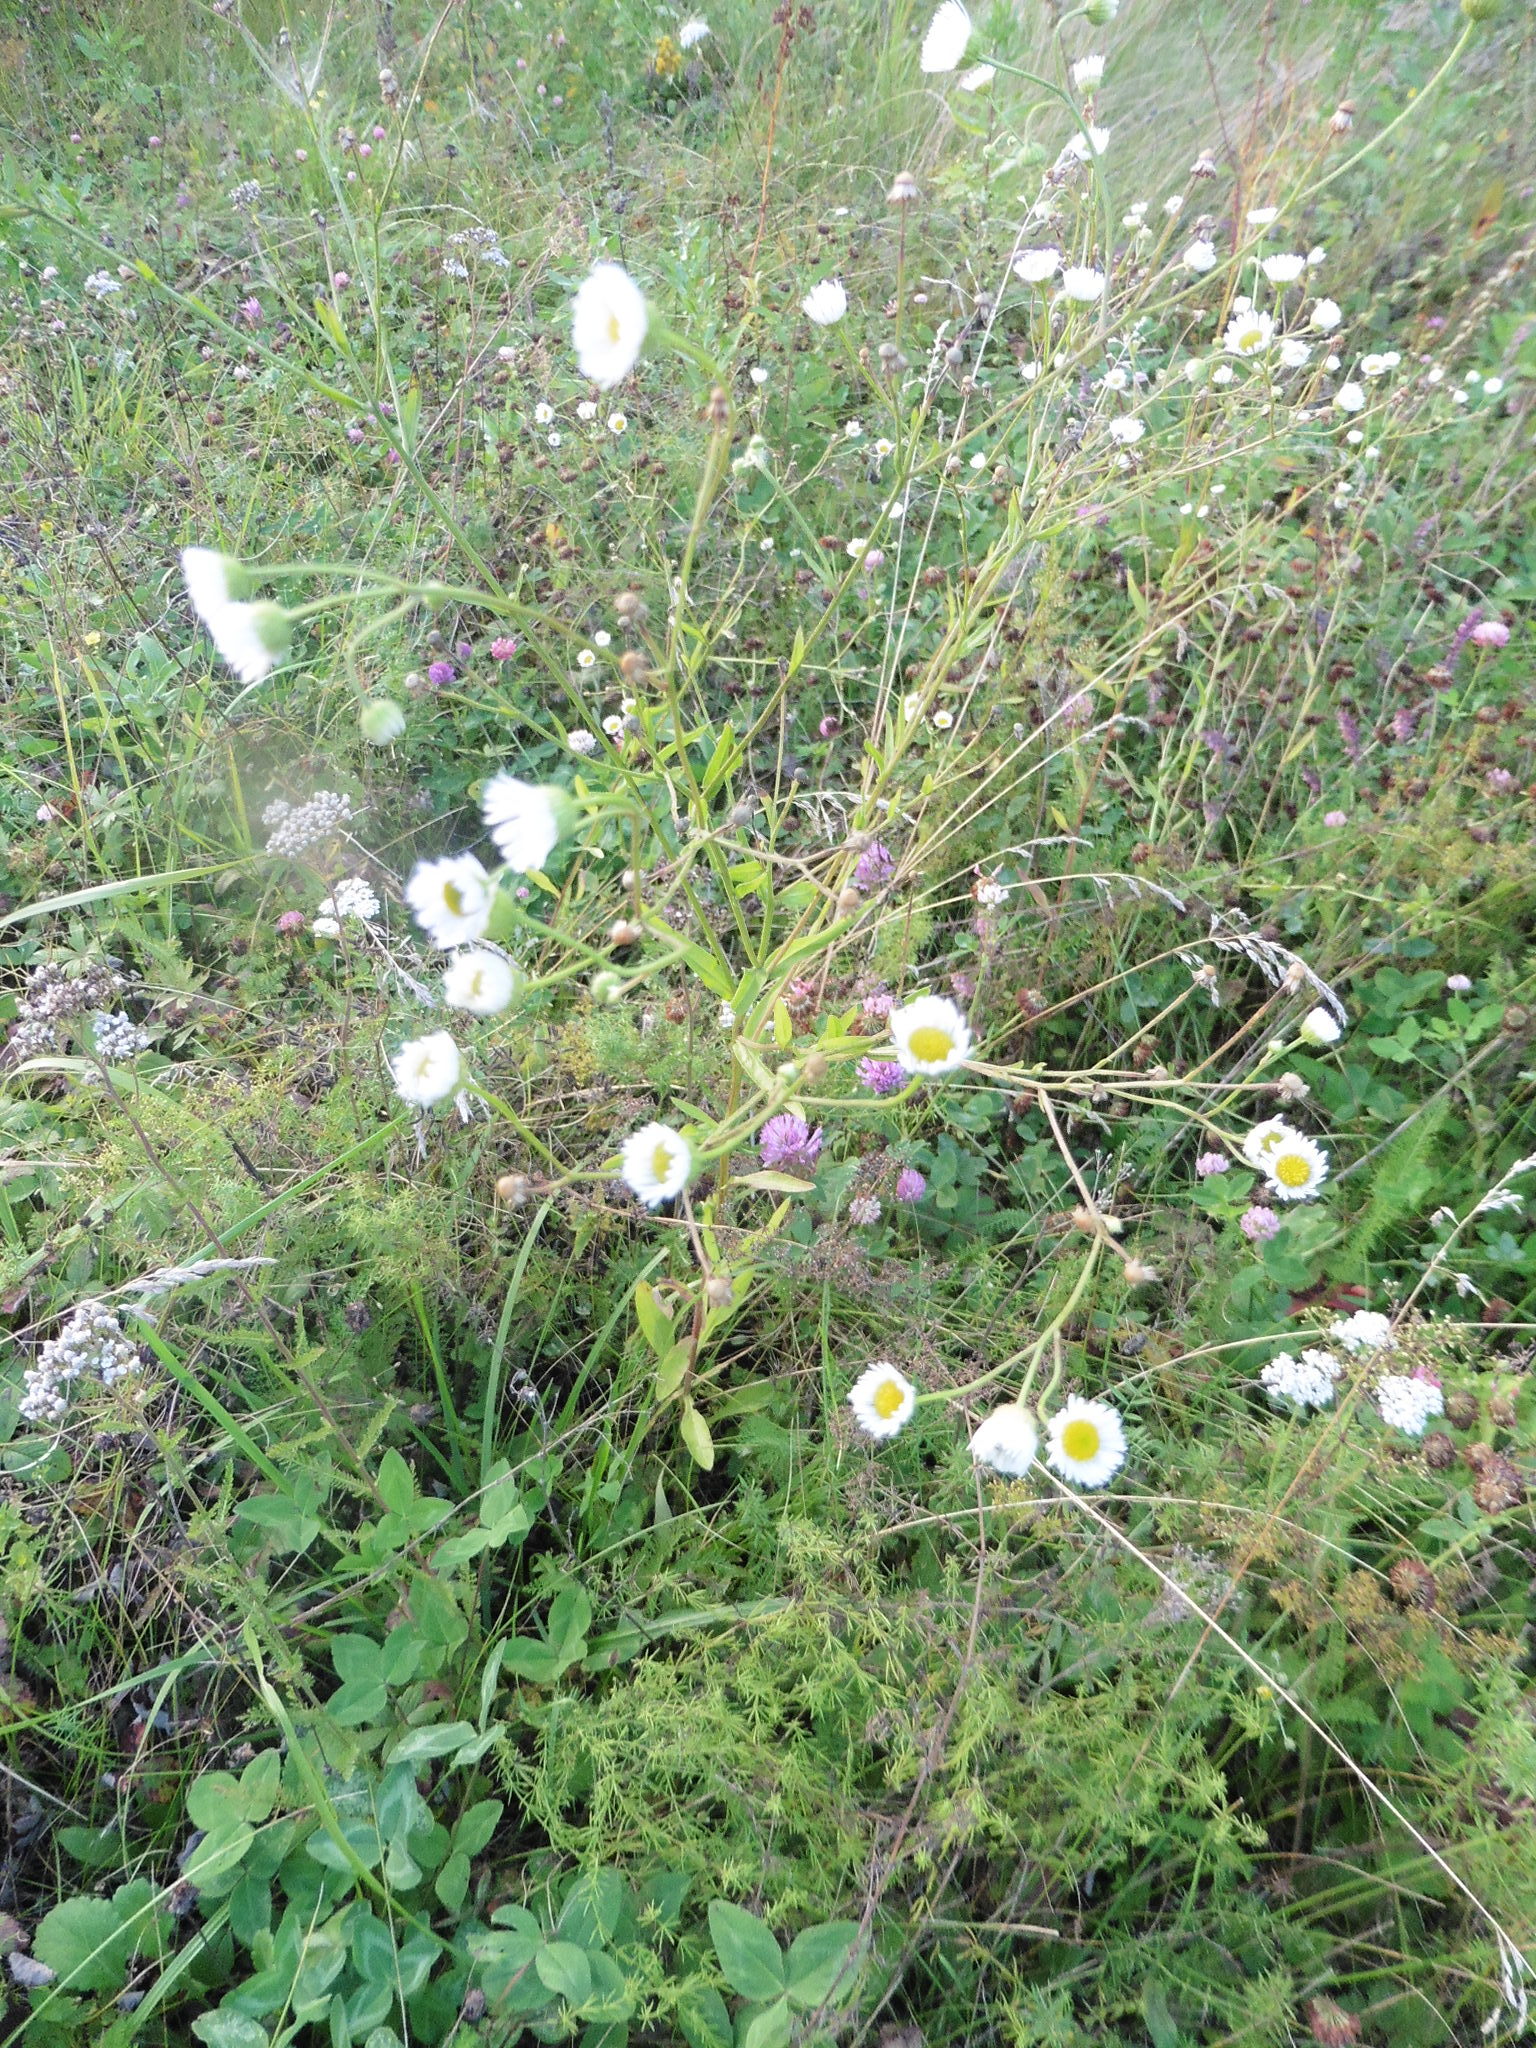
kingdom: Plantae
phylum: Tracheophyta
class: Magnoliopsida
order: Asterales
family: Asteraceae
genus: Erigeron
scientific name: Erigeron strigosus
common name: Common eastern fleabane
